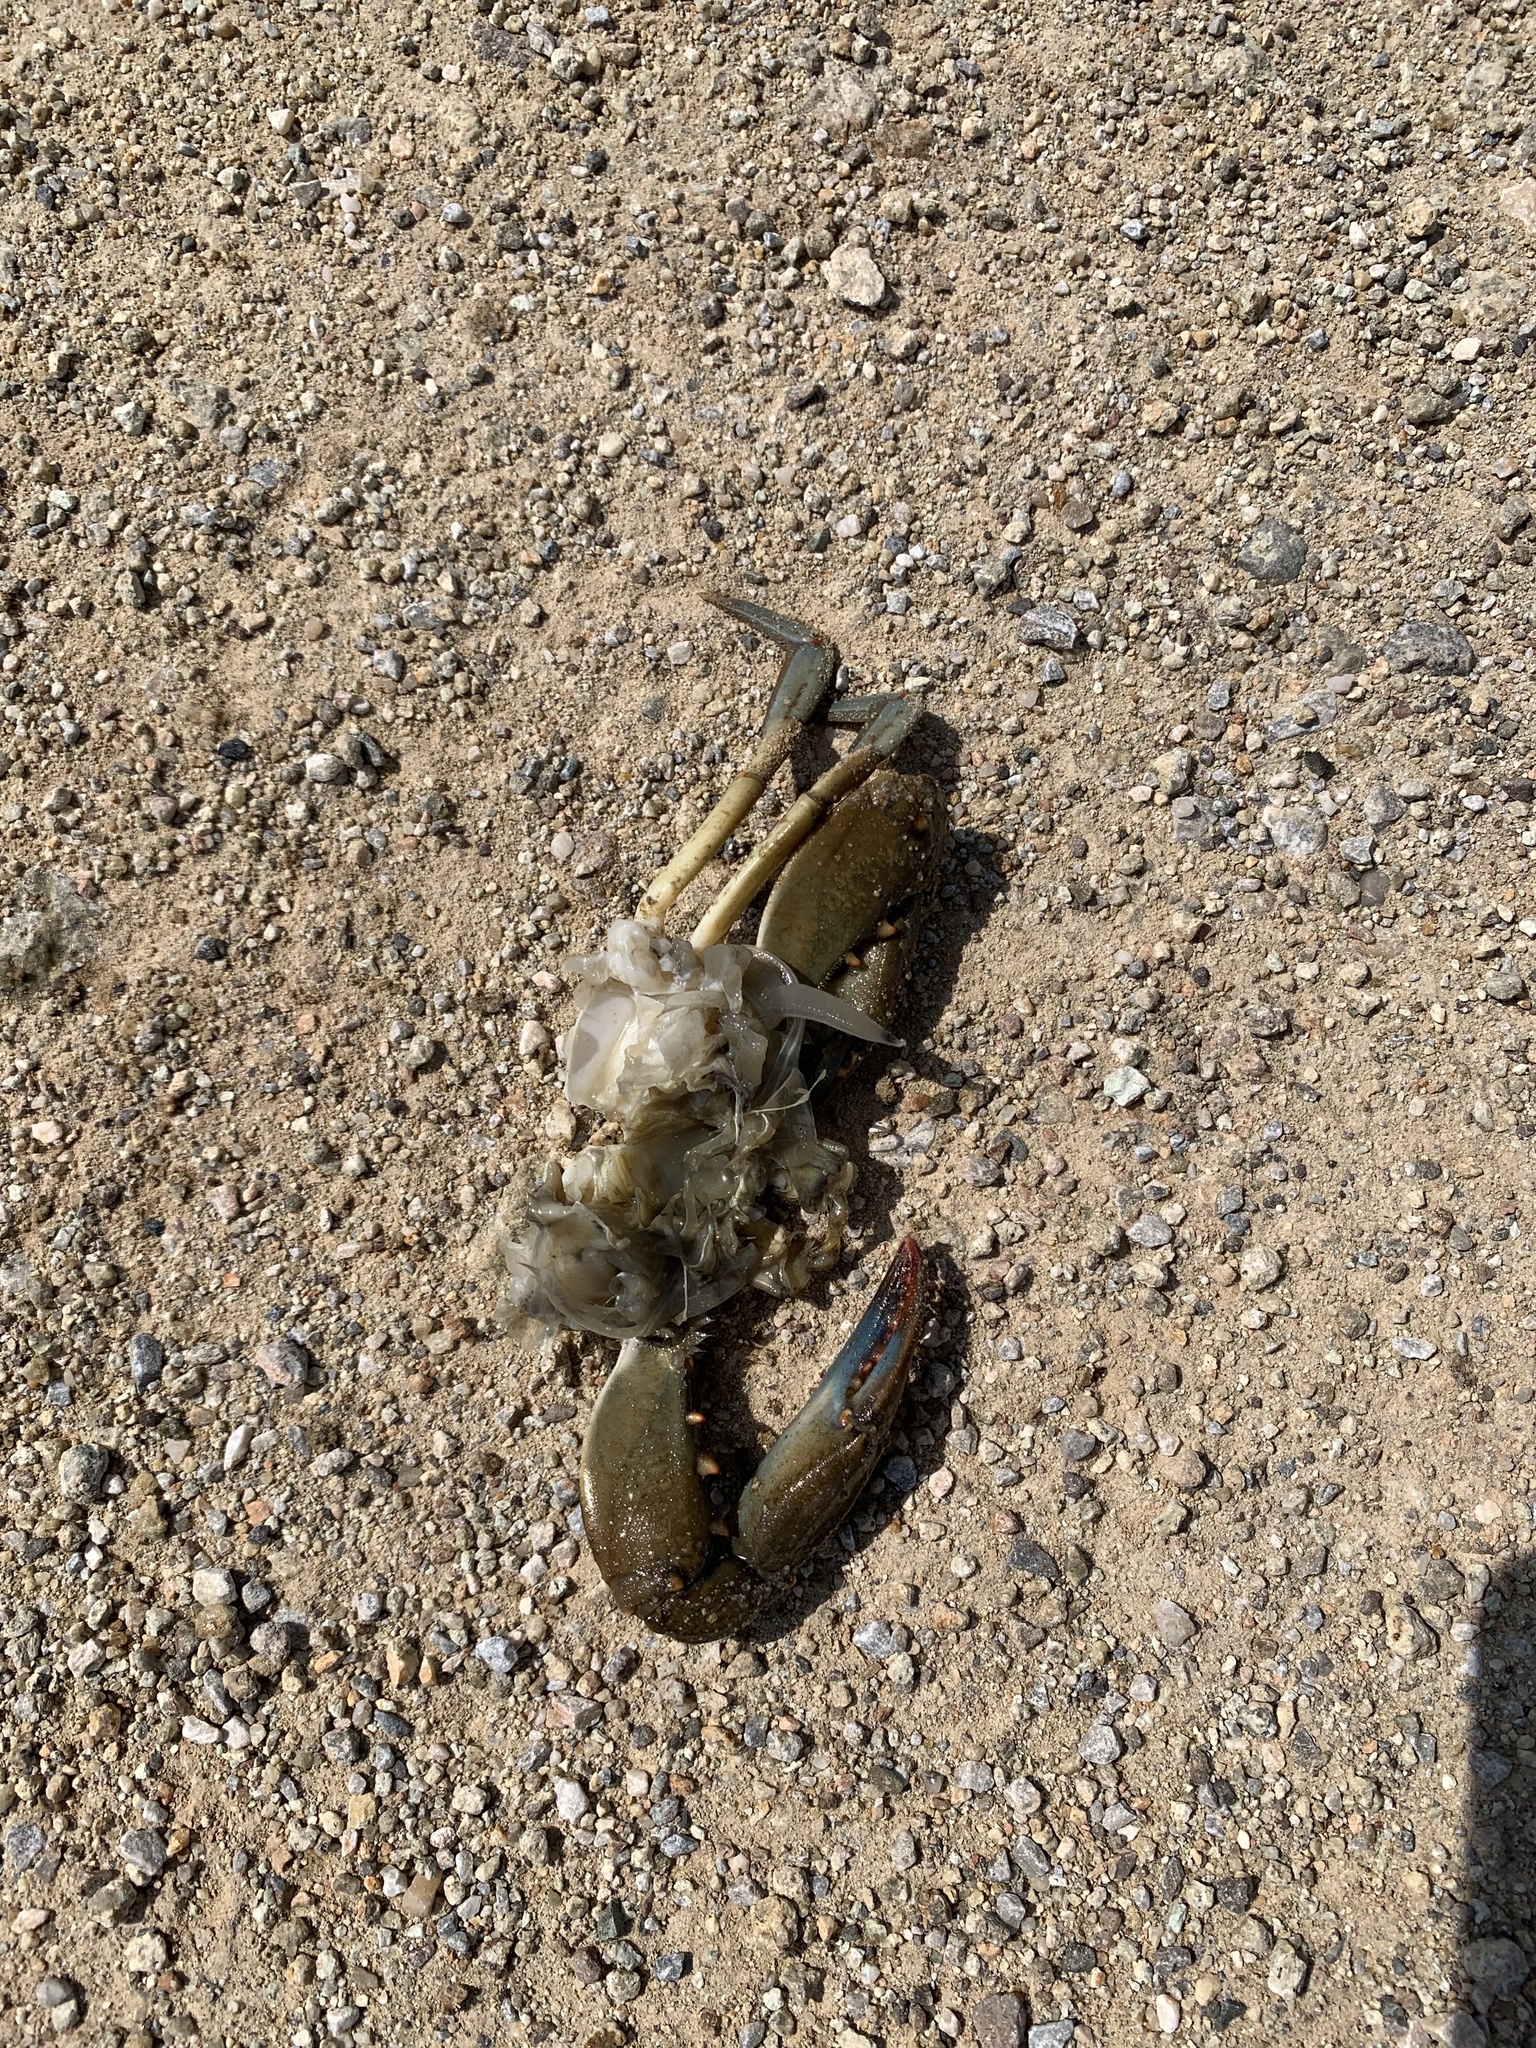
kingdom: Animalia
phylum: Arthropoda
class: Malacostraca
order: Decapoda
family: Portunidae
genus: Callinectes
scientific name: Callinectes sapidus
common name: Blue crab
